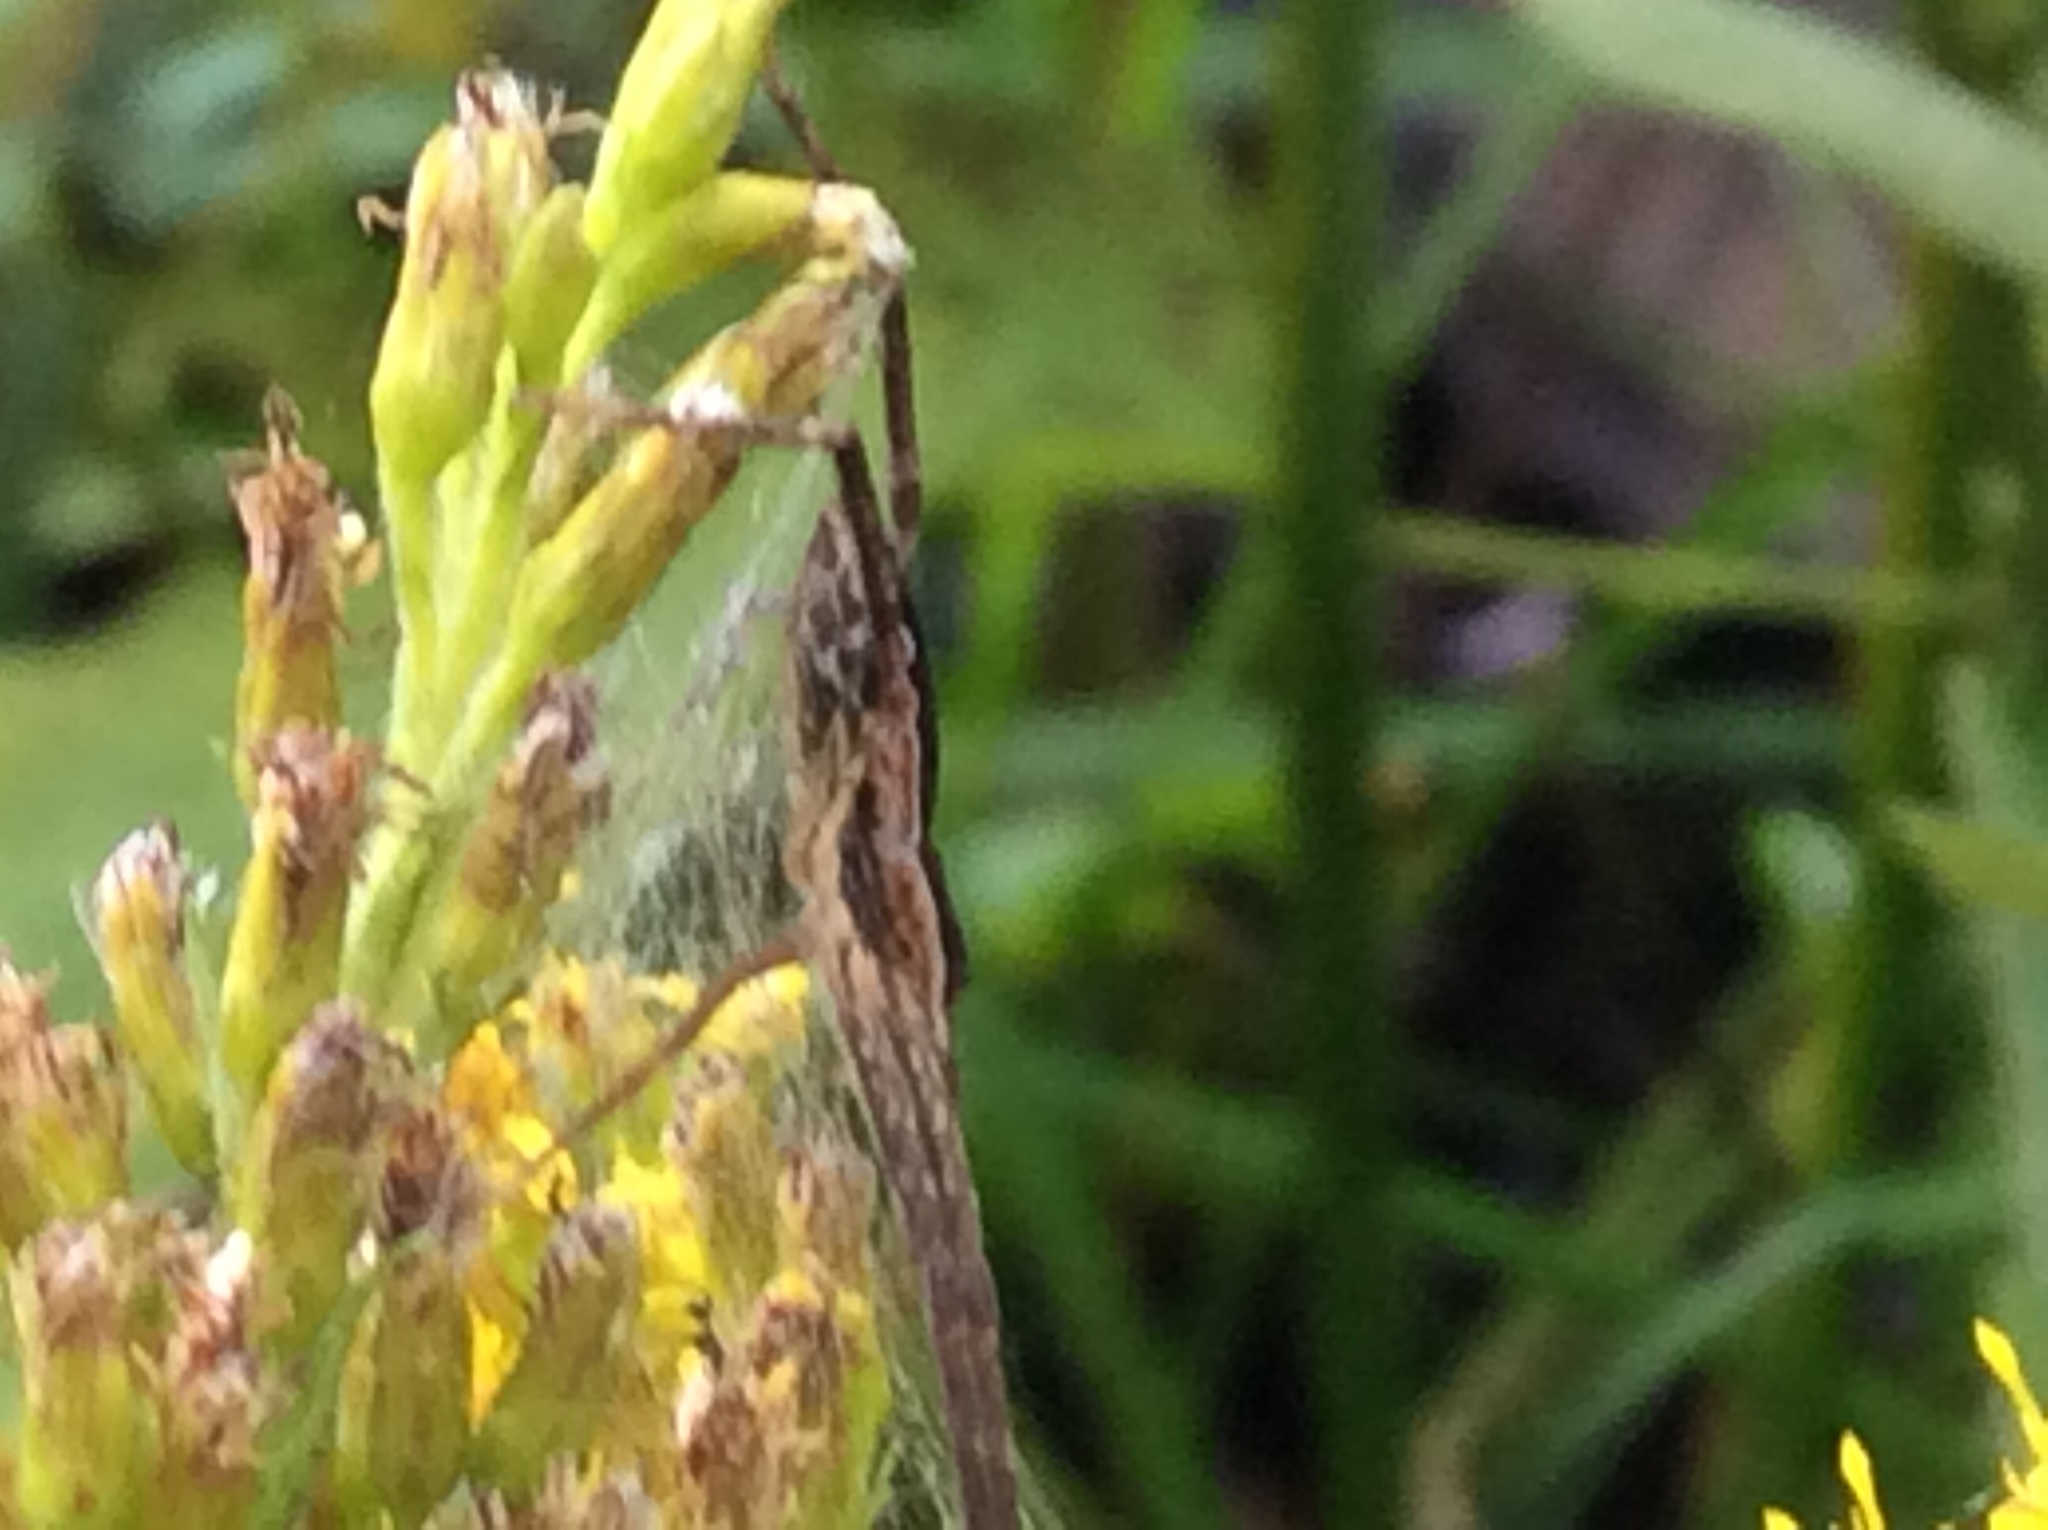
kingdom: Animalia
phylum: Arthropoda
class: Arachnida
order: Araneae
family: Pisauridae
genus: Pisaurina
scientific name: Pisaurina mira
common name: American nursery web spider
